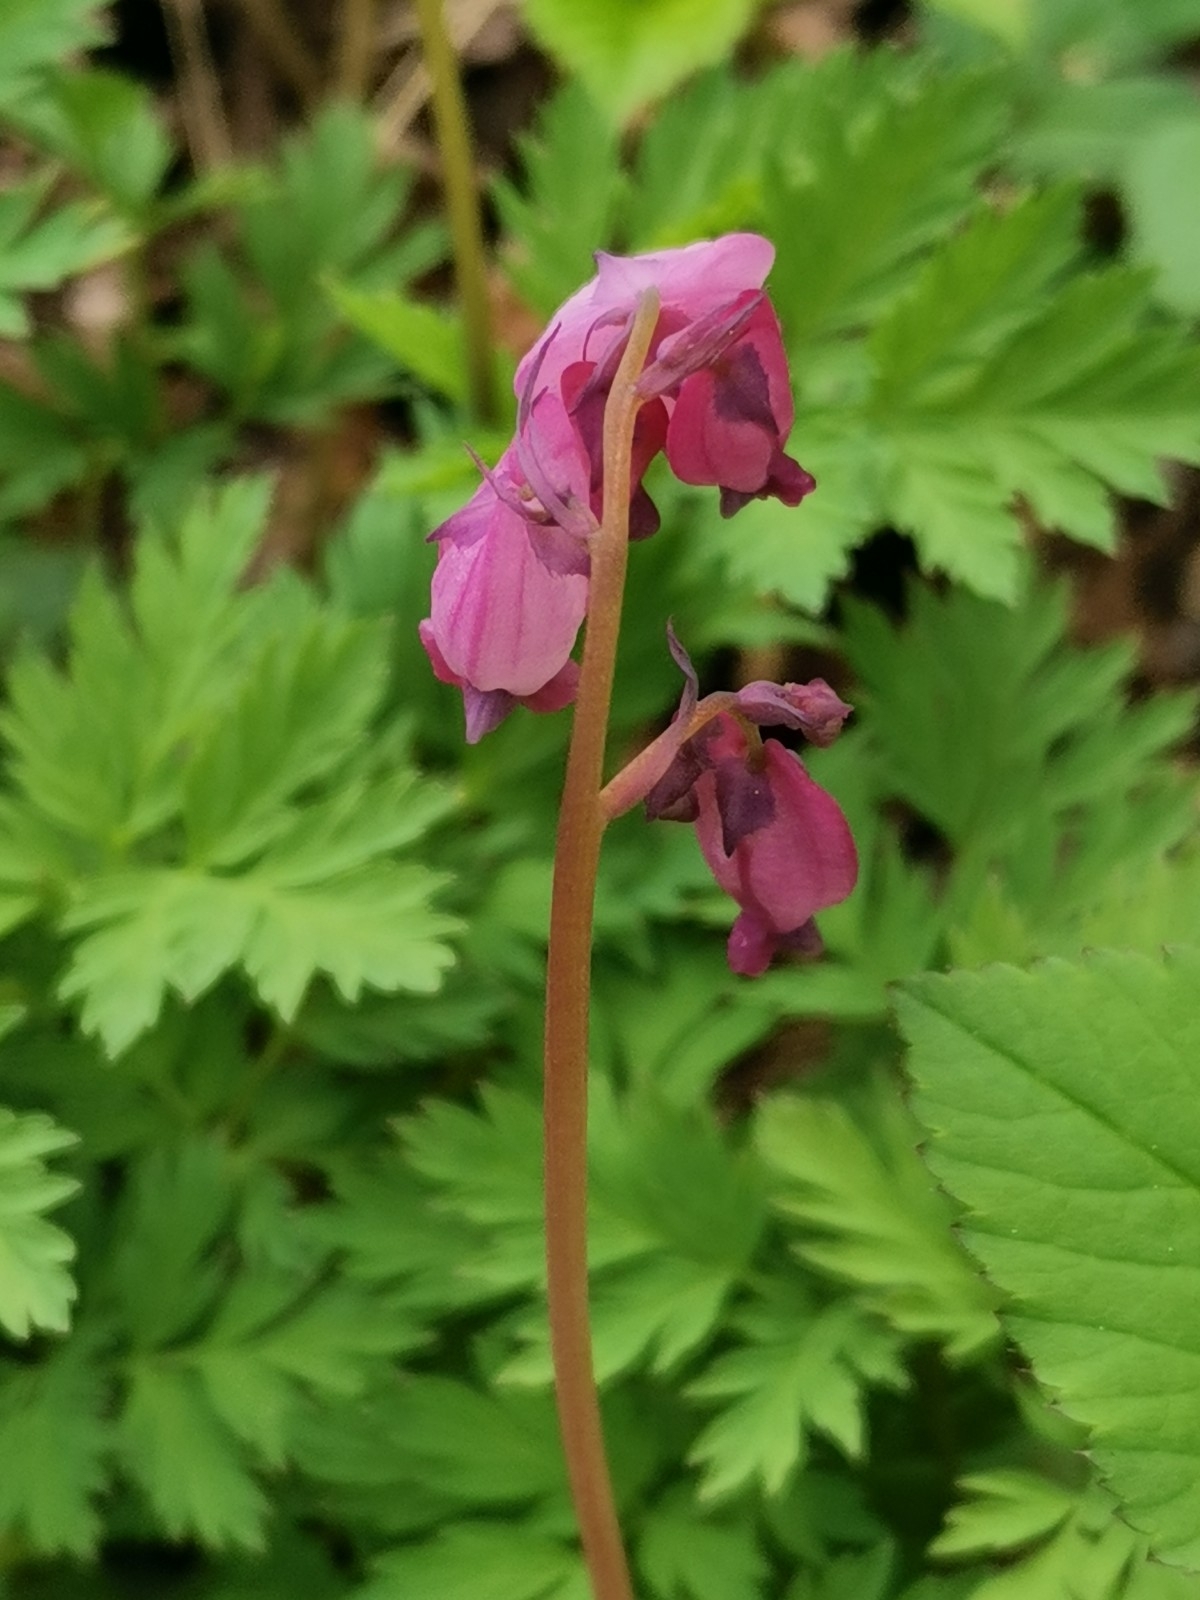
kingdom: Plantae
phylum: Tracheophyta
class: Magnoliopsida
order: Ranunculales
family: Papaveraceae
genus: Dicentra
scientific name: Dicentra eximia
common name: Turkey-corn
